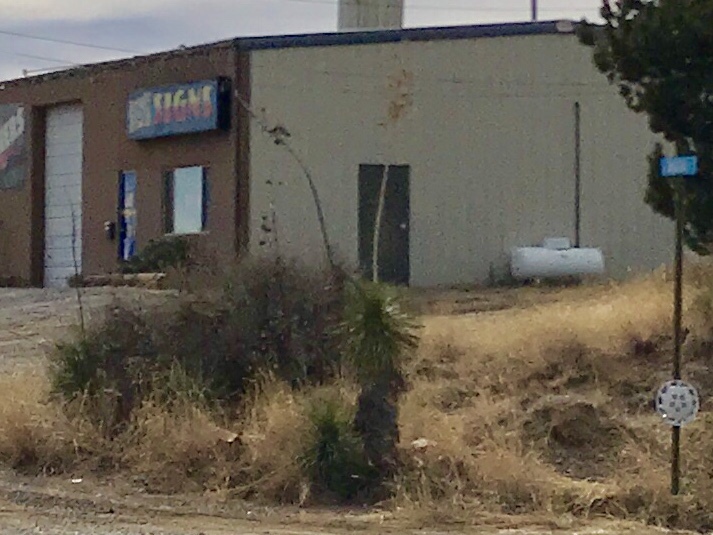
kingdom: Plantae
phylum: Tracheophyta
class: Liliopsida
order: Asparagales
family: Asparagaceae
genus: Yucca
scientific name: Yucca elata
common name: Palmella
